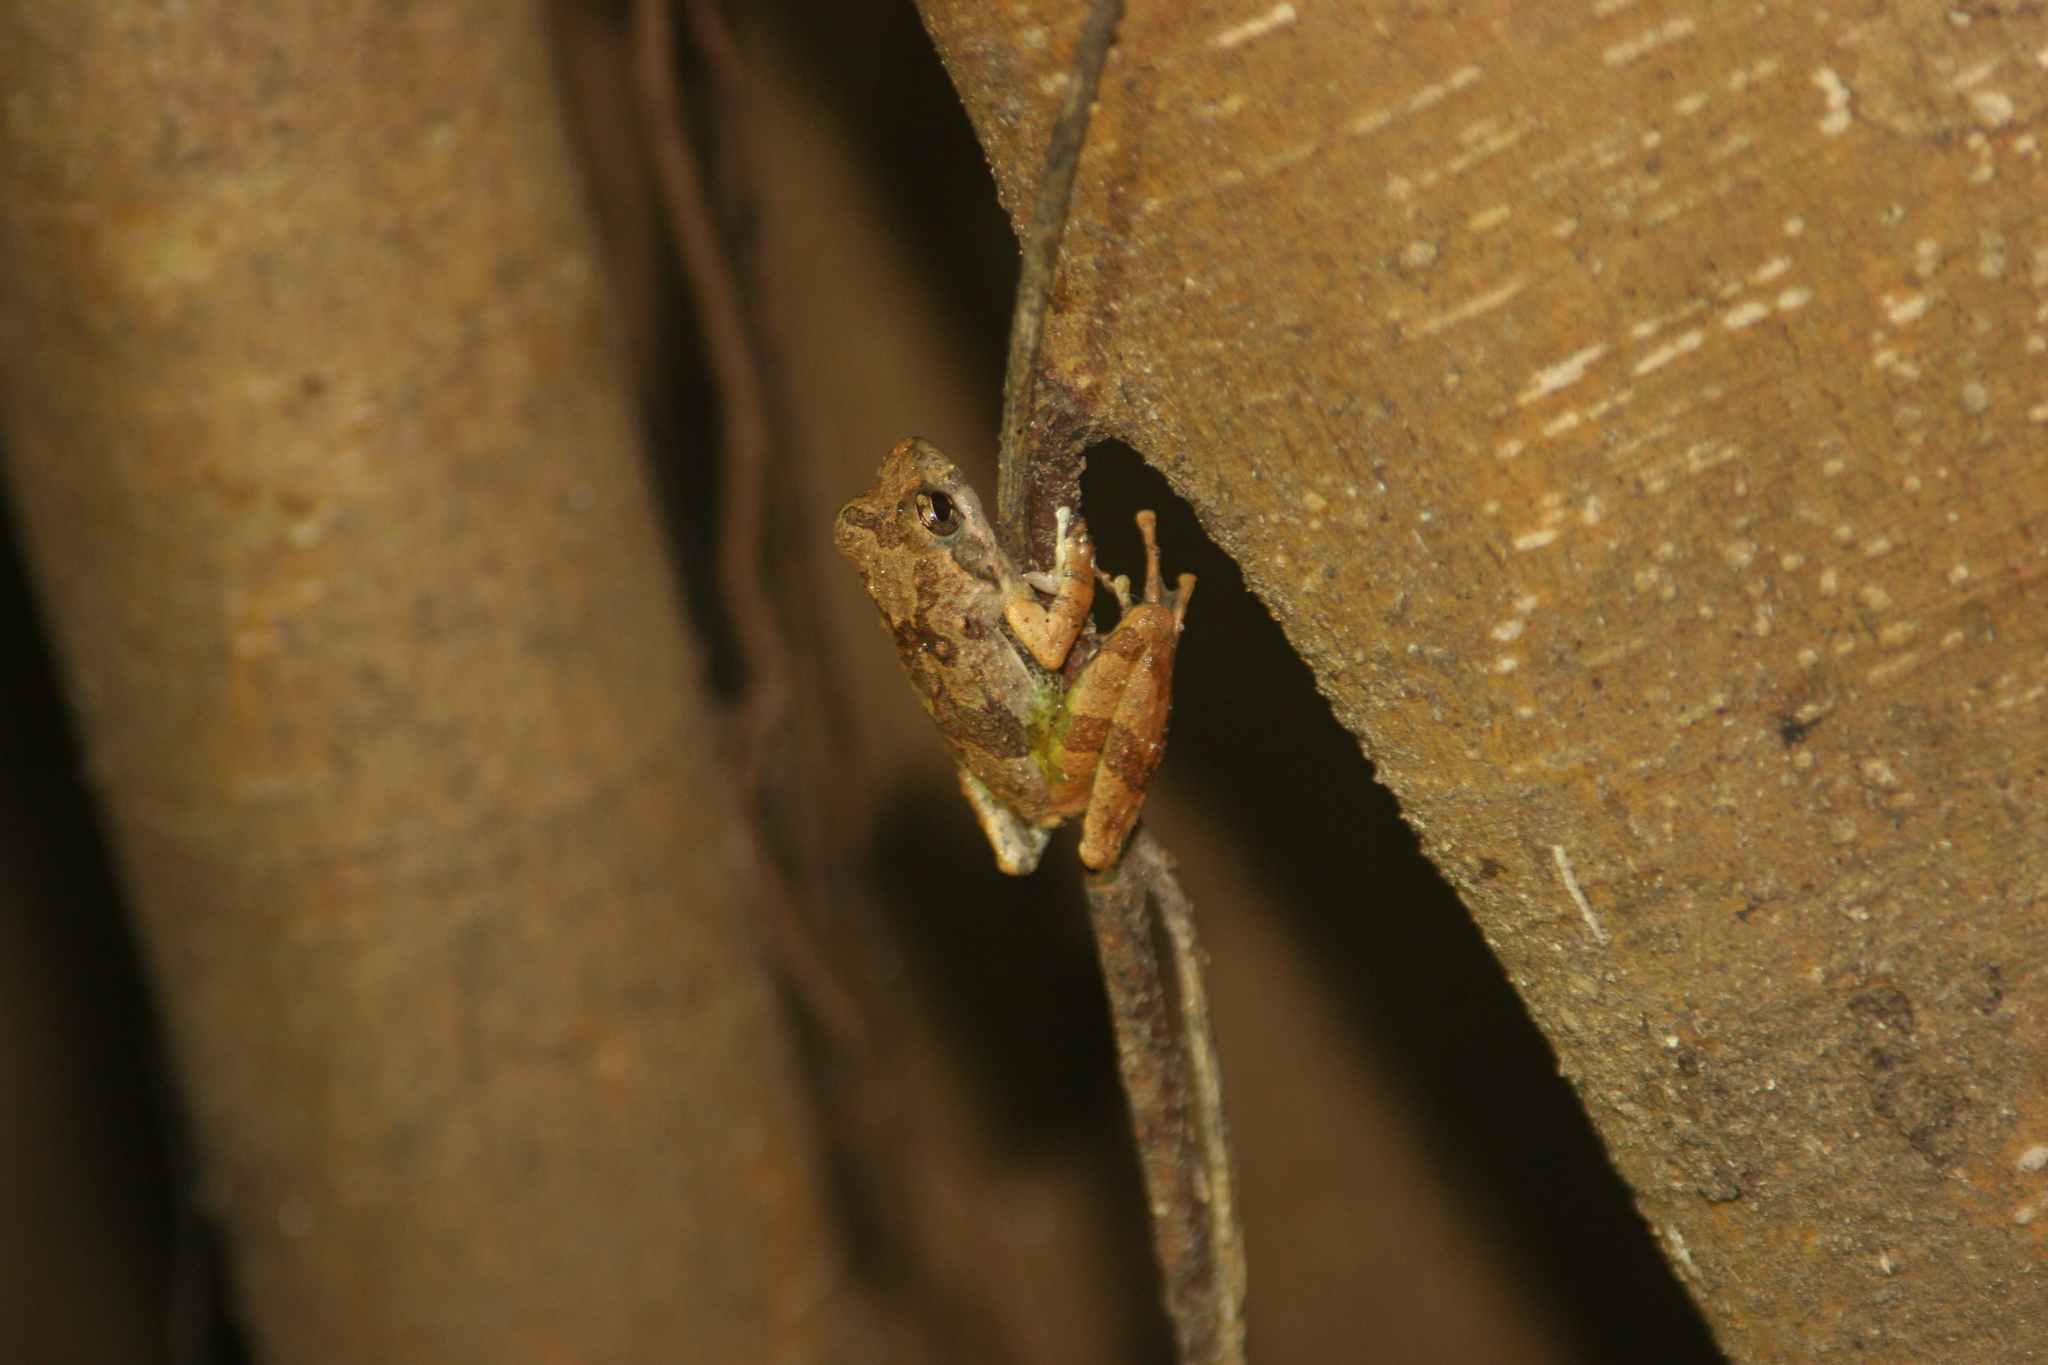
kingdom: Animalia
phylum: Chordata
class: Amphibia
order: Anura
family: Rhacophoridae
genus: Buergeria
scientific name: Buergeria japonica
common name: Japanese buerger's frog
